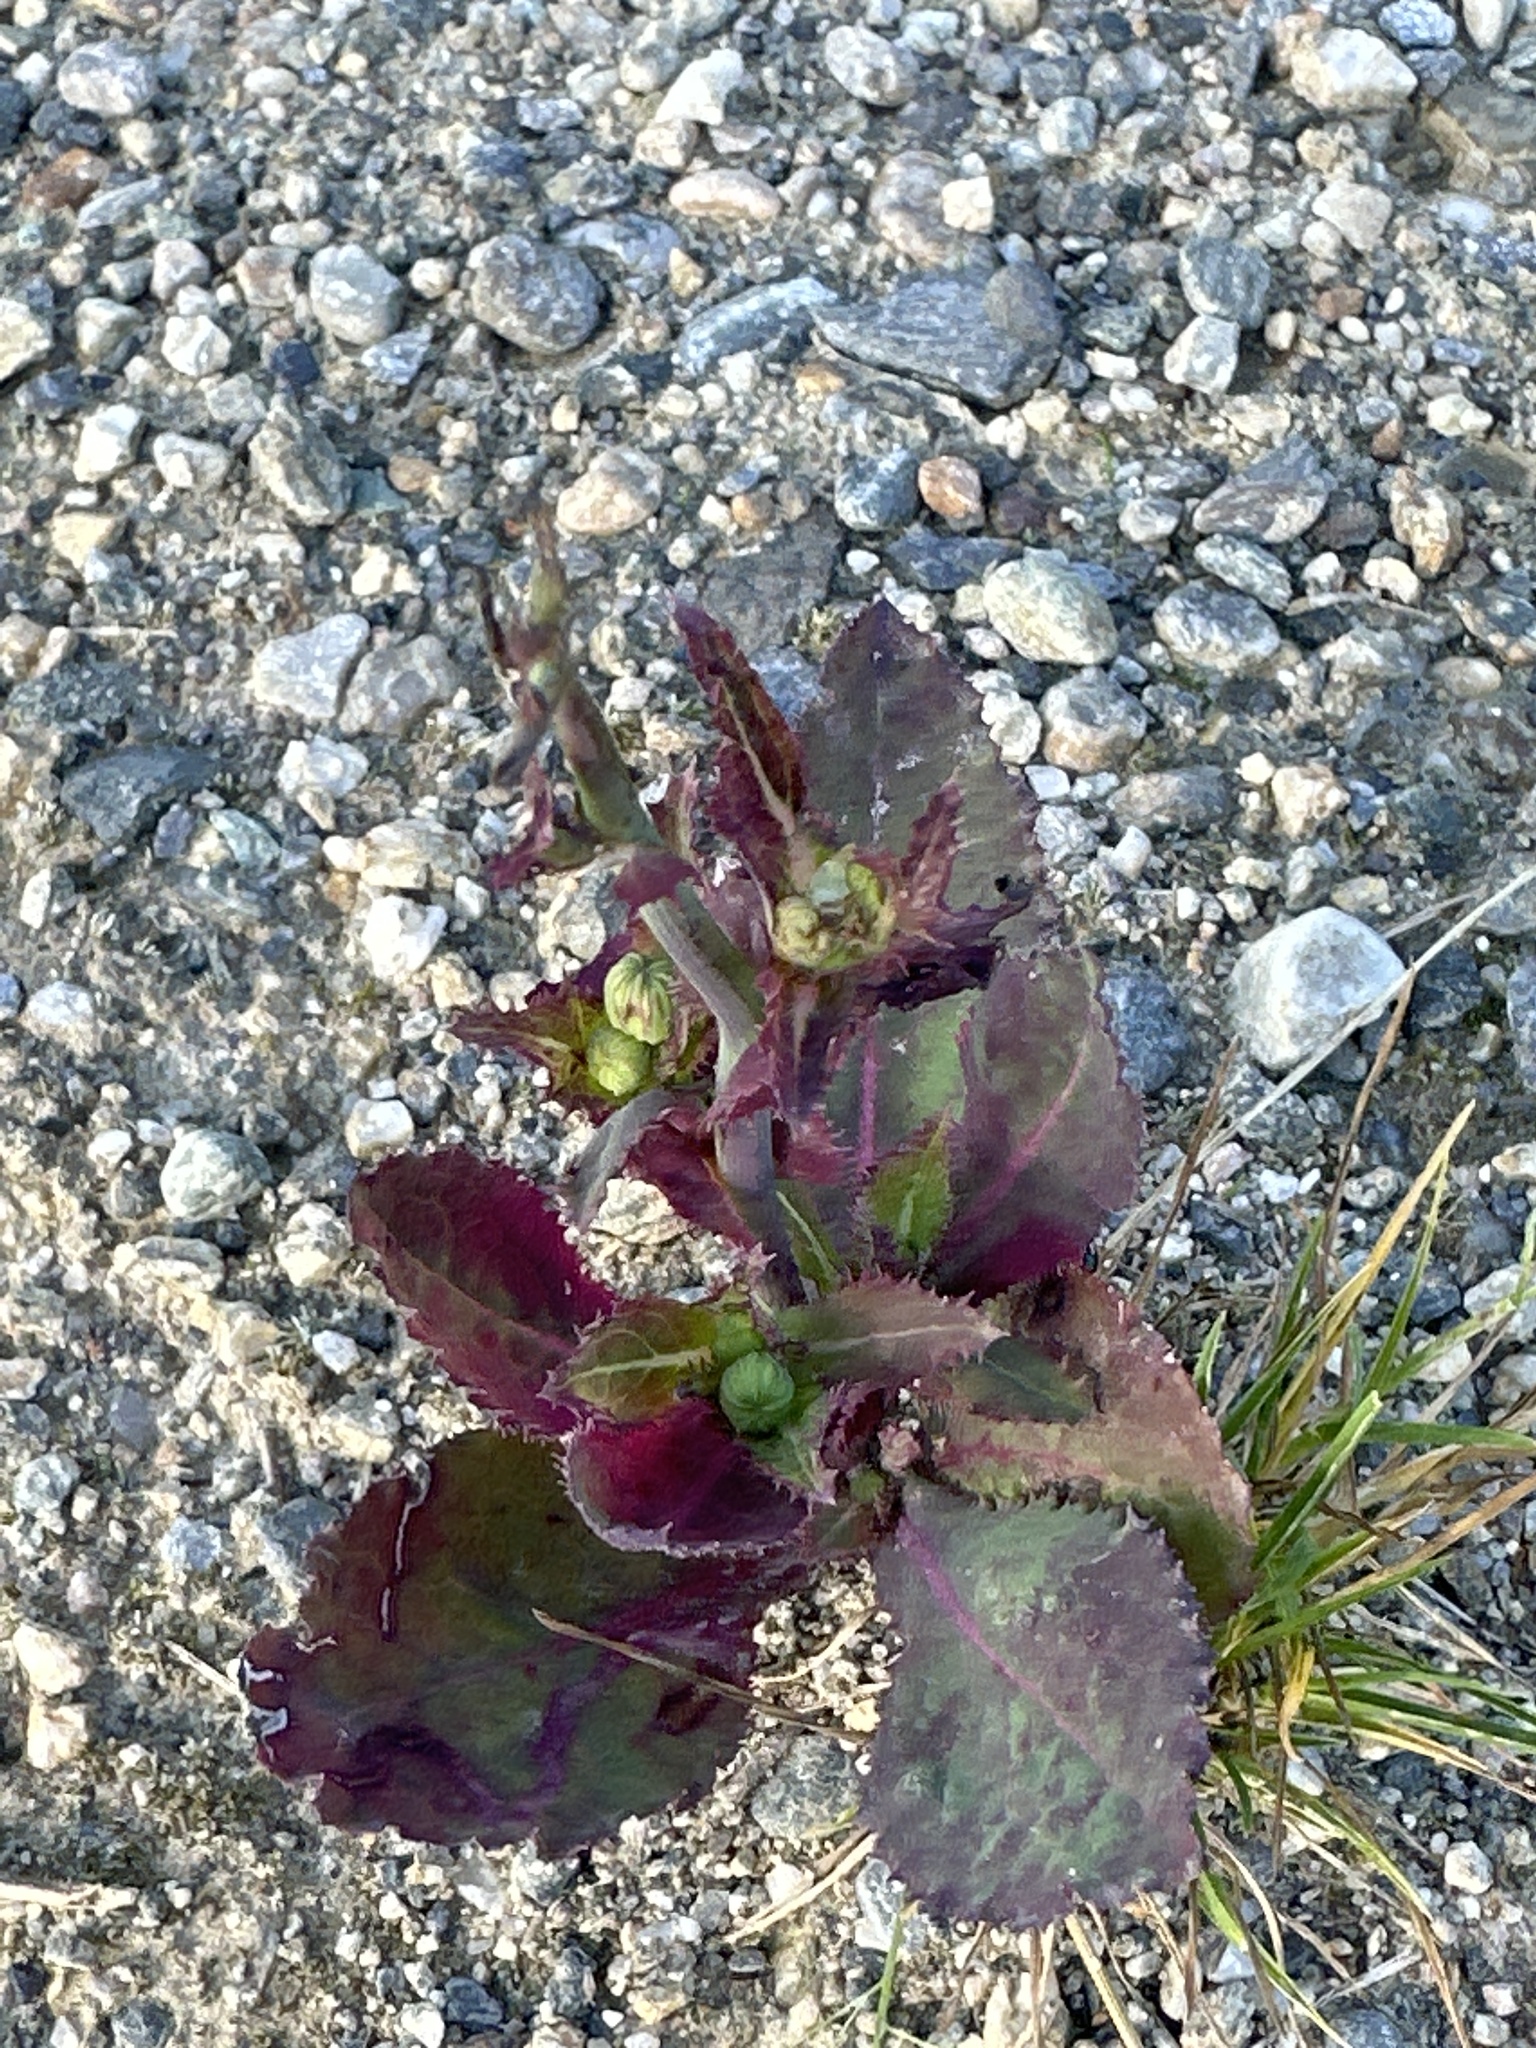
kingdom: Plantae
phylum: Tracheophyta
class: Magnoliopsida
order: Asterales
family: Asteraceae
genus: Sonchus
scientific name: Sonchus asper
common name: Prickly sow-thistle
